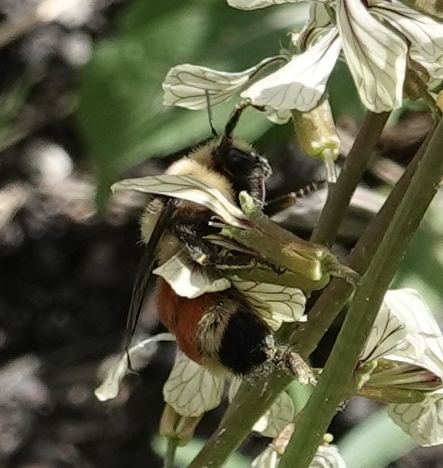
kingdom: Animalia
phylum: Arthropoda
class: Insecta
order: Hymenoptera
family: Apidae
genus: Bombus
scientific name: Bombus huntii
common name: Hunt bumble bee
